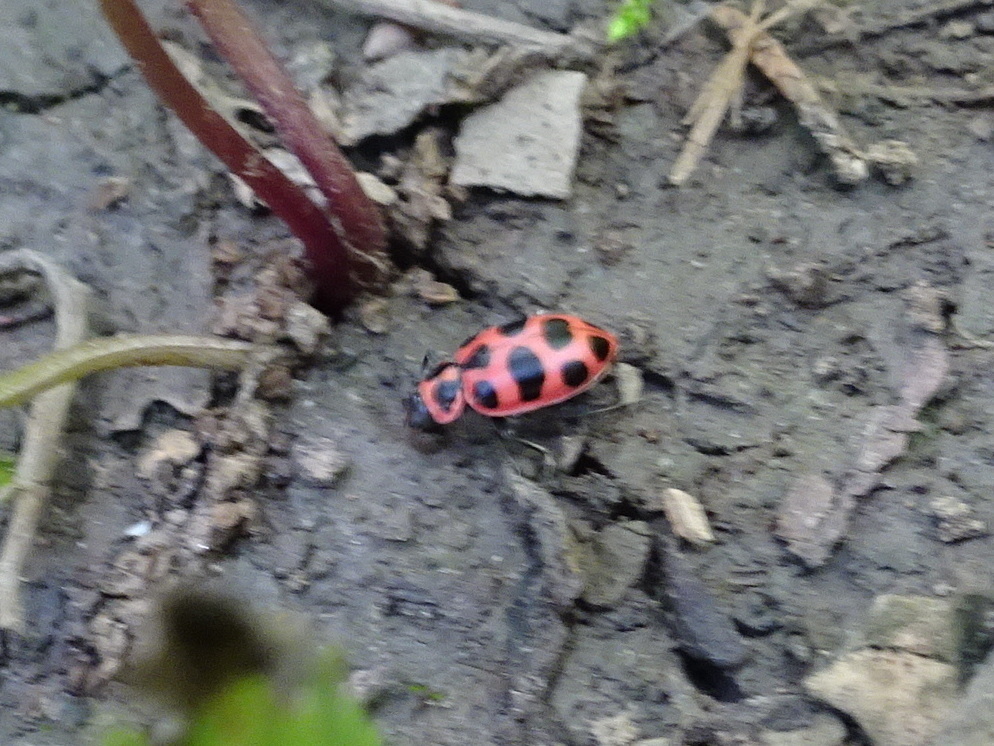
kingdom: Animalia
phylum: Arthropoda
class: Insecta
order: Coleoptera
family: Coccinellidae
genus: Coleomegilla
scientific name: Coleomegilla maculata
